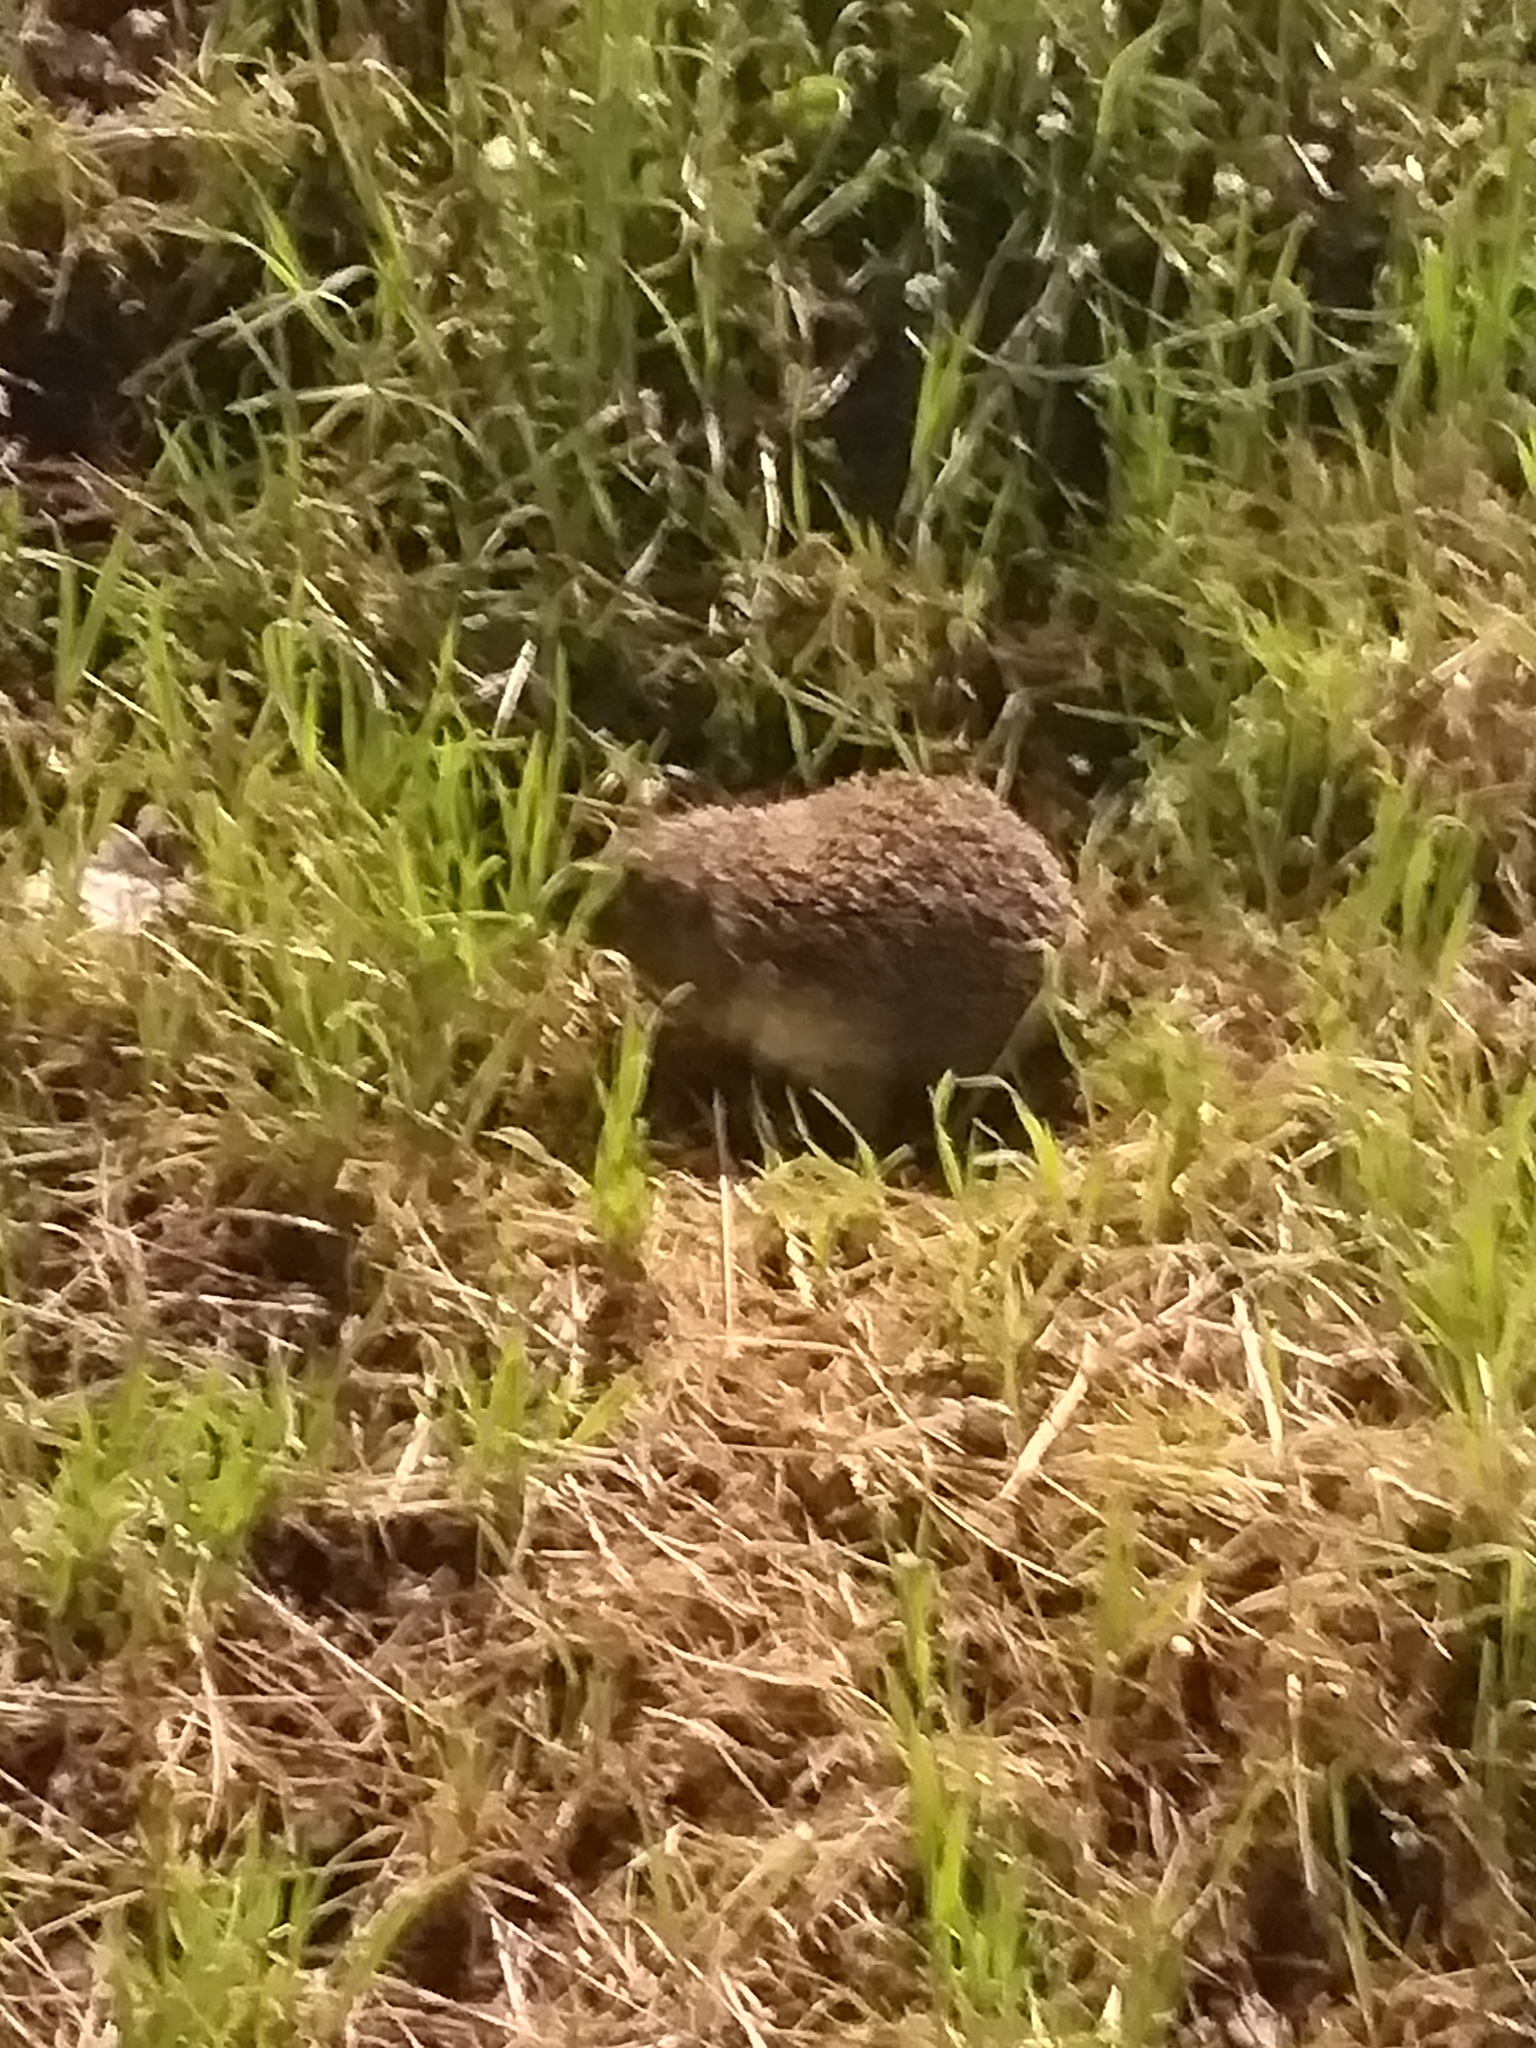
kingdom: Animalia
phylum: Chordata
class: Mammalia
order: Erinaceomorpha
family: Erinaceidae
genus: Erinaceus
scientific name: Erinaceus roumanicus
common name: Northern white-breasted hedgehog
